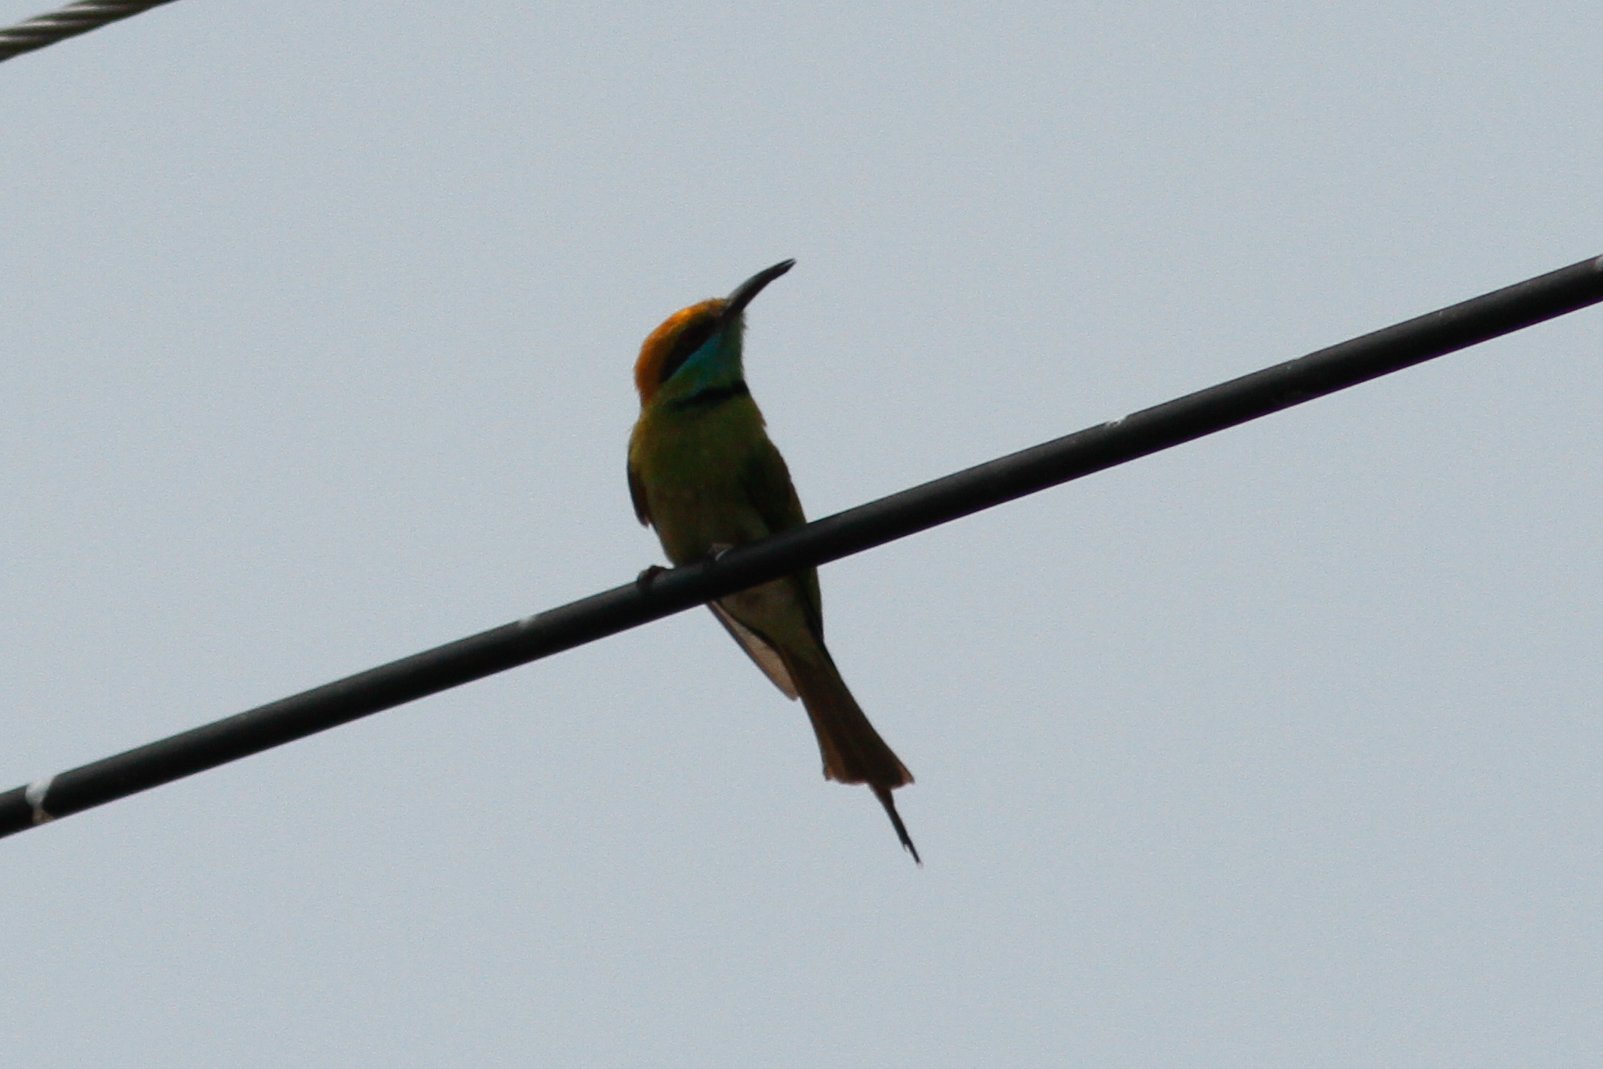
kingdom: Animalia
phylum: Chordata
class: Aves
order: Coraciiformes
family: Meropidae
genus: Merops
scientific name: Merops orientalis
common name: Green bee-eater
